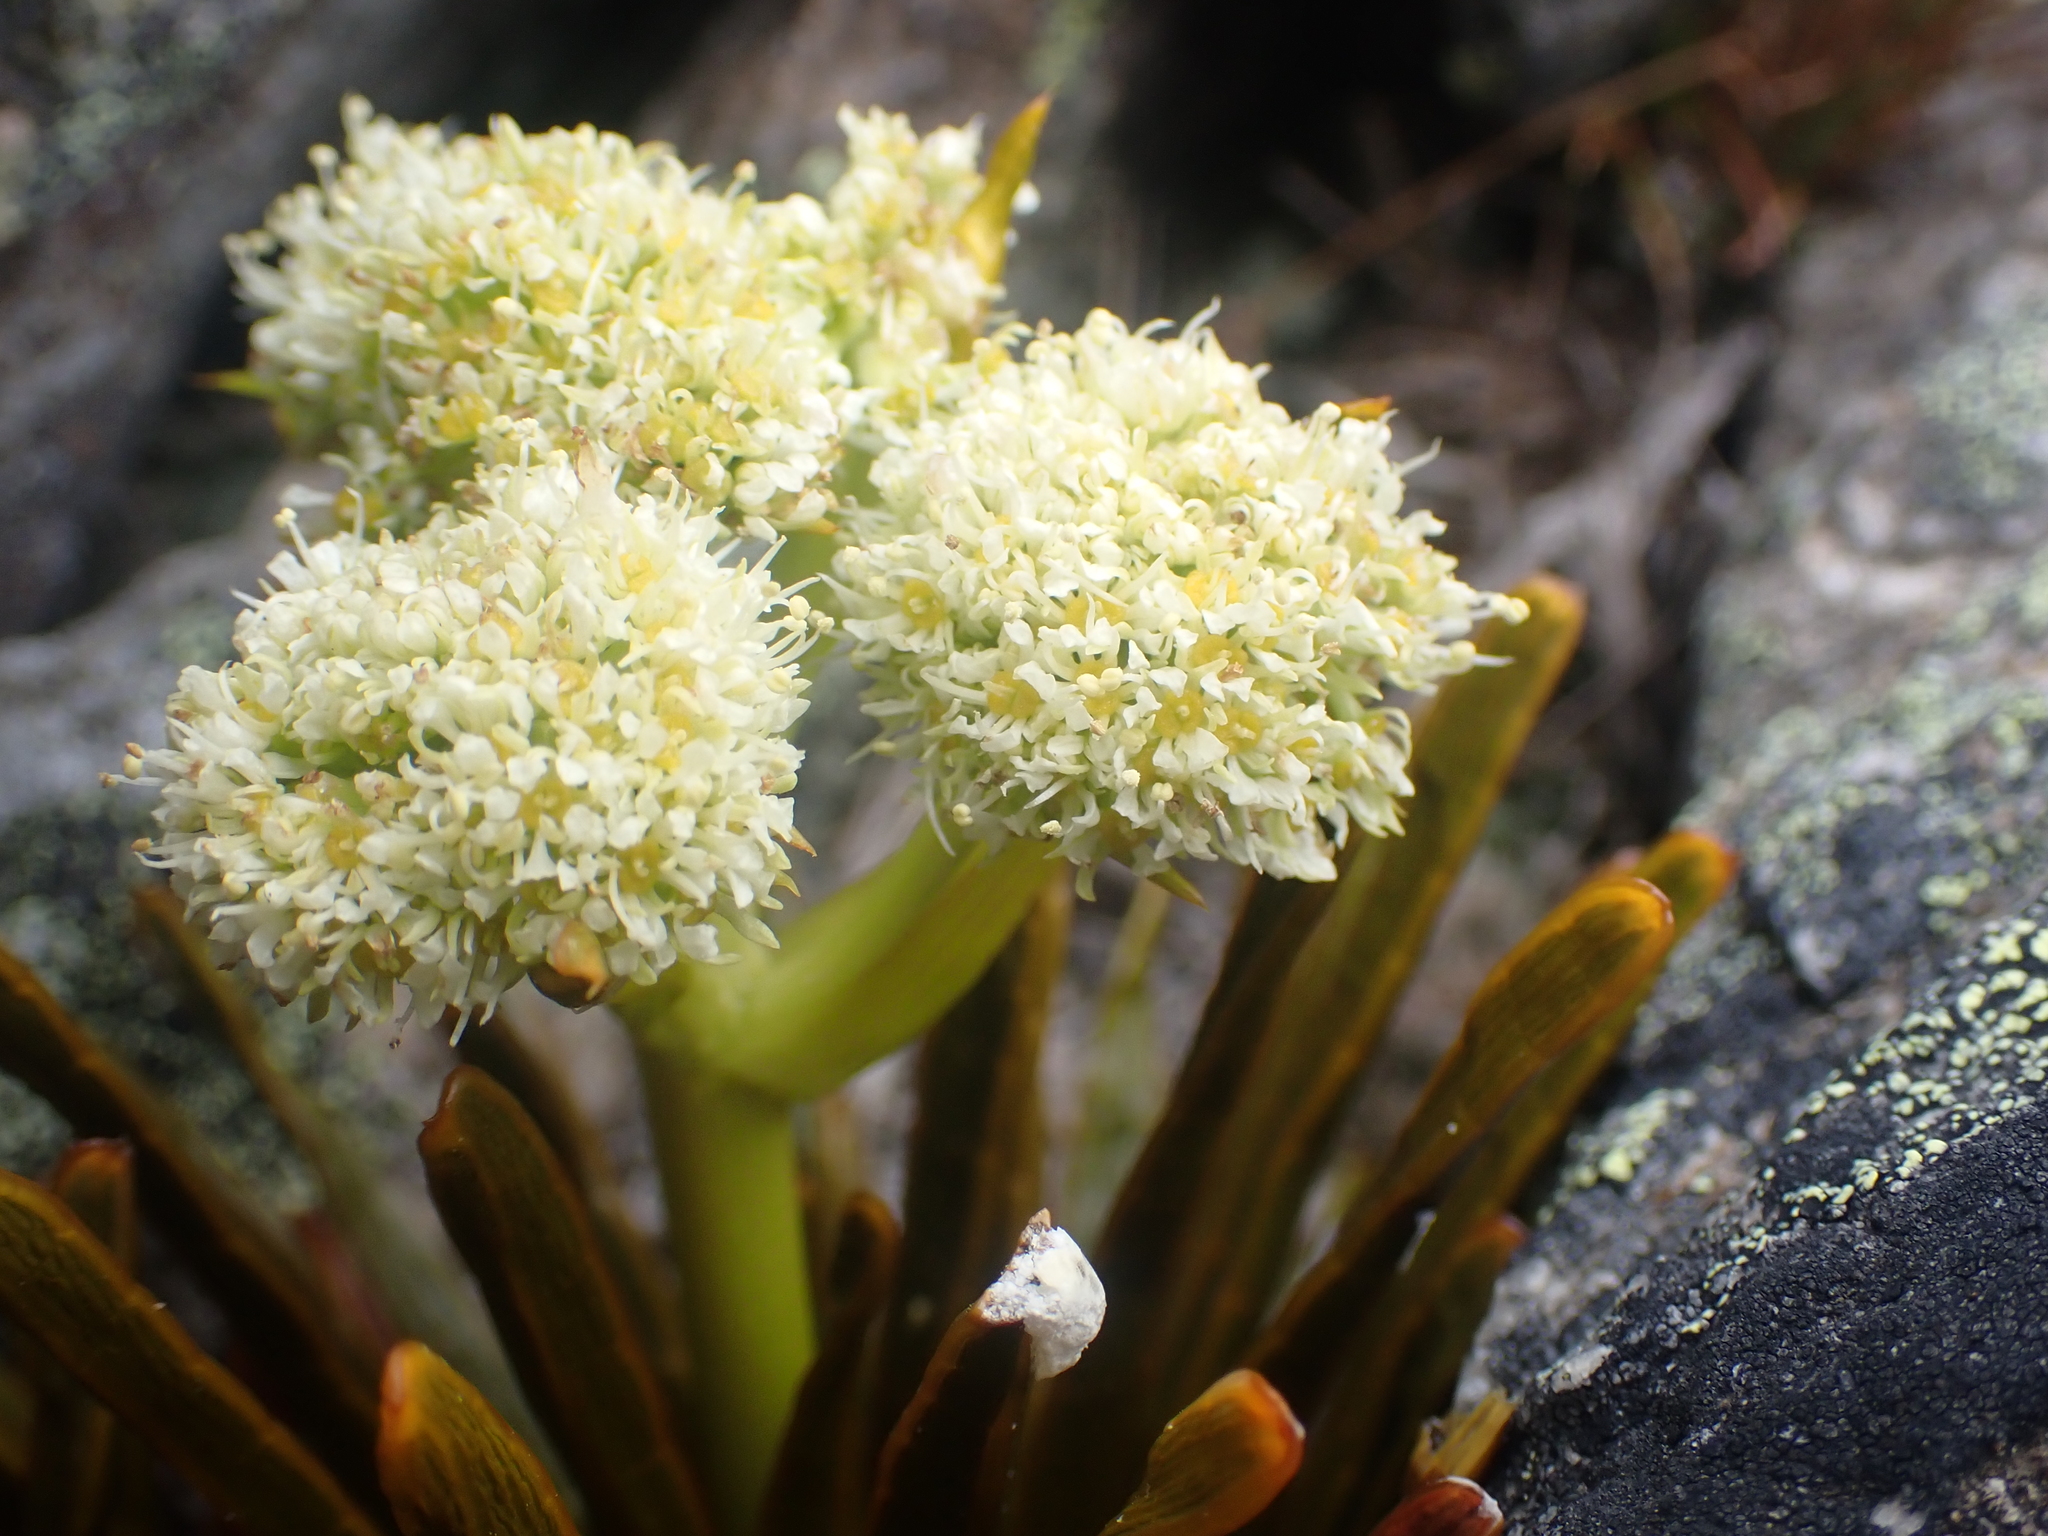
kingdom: Plantae
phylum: Tracheophyta
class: Magnoliopsida
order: Apiales
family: Apiaceae
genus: Aciphylla
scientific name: Aciphylla simplex
